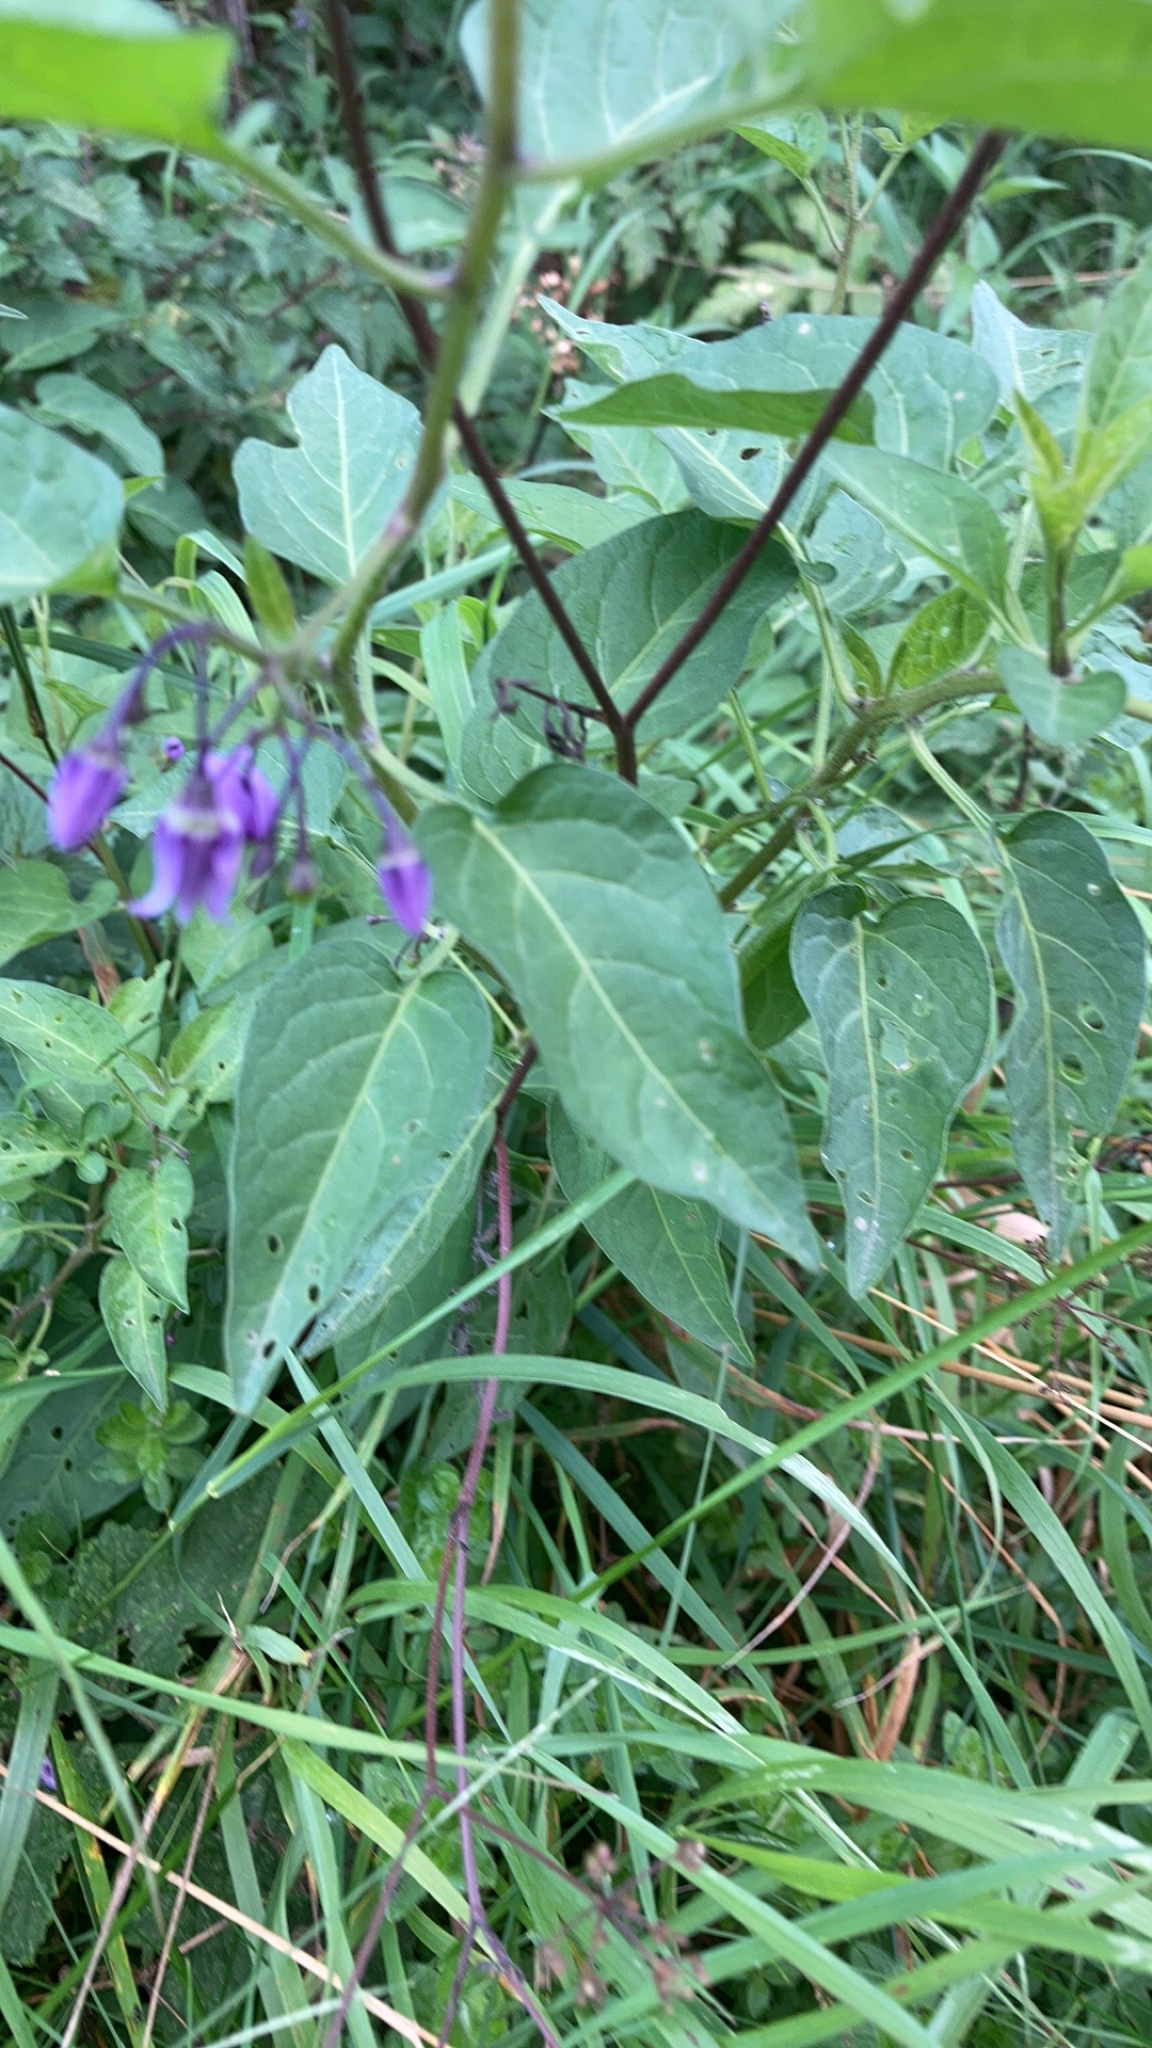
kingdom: Plantae
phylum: Tracheophyta
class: Magnoliopsida
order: Solanales
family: Solanaceae
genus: Solanum
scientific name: Solanum dulcamara
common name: Climbing nightshade
